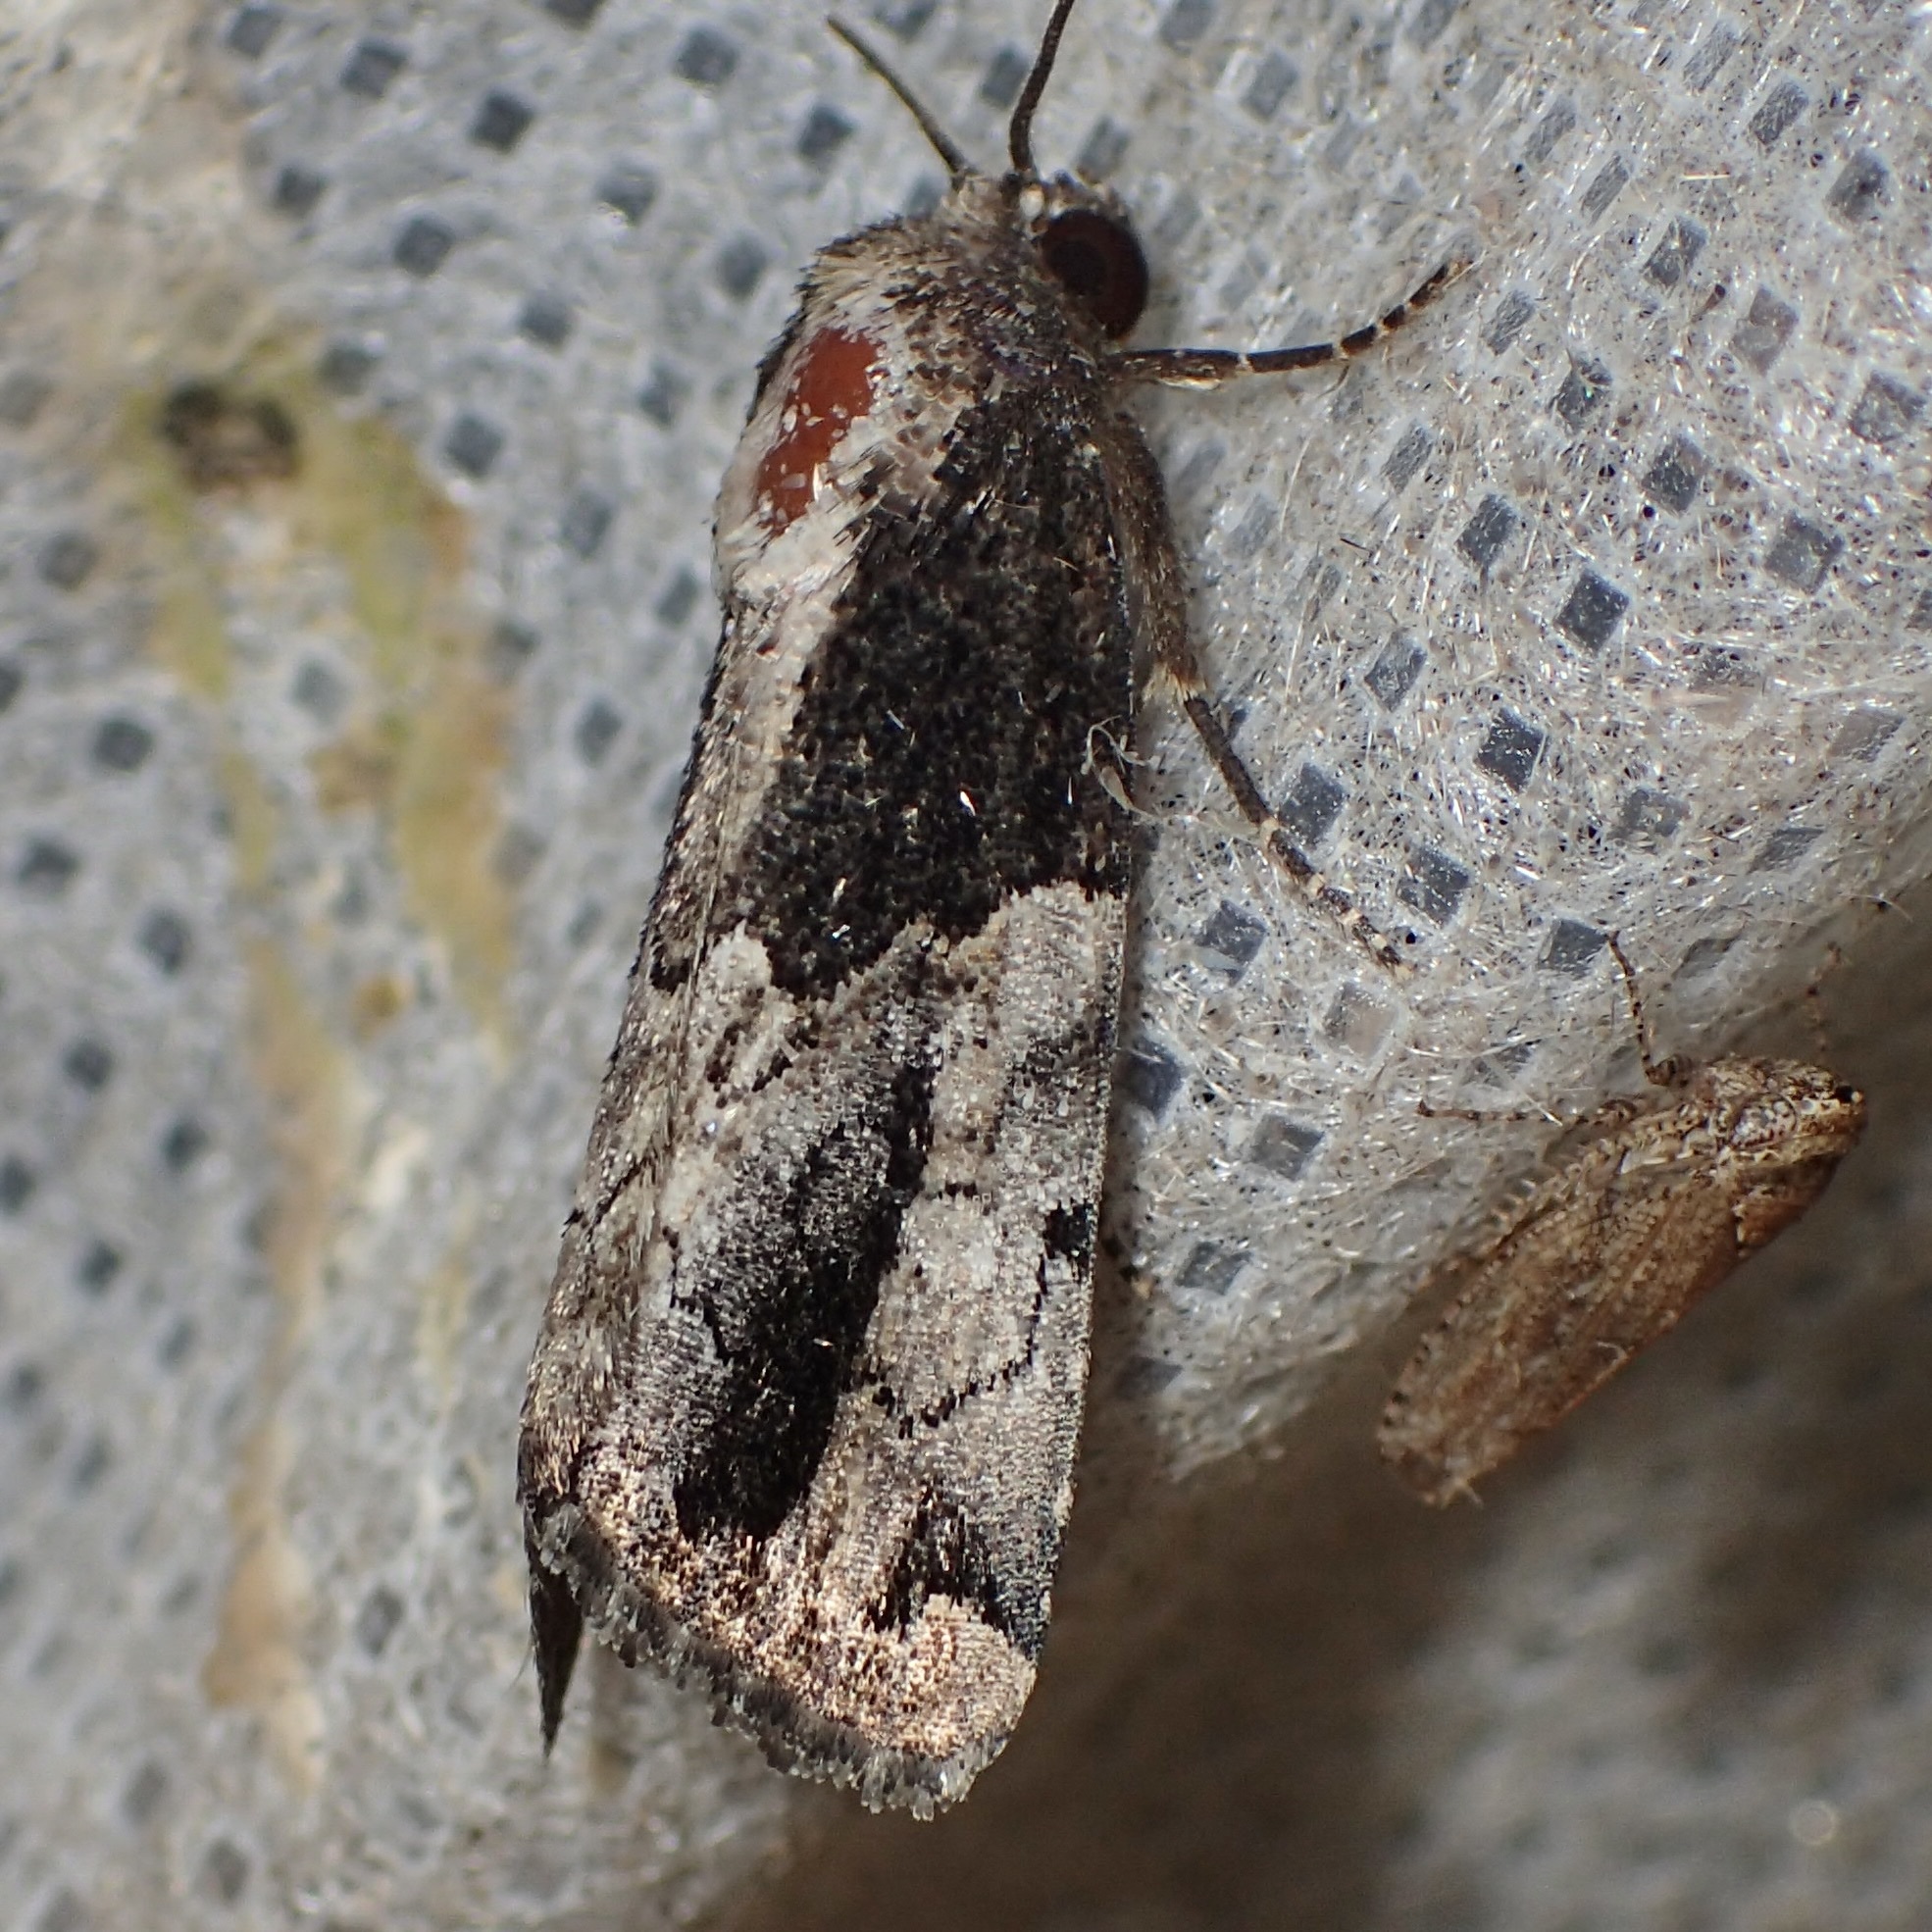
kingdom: Animalia
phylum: Arthropoda
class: Insecta
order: Lepidoptera
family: Noctuidae
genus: Bryolymnia
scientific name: Bryolymnia anthracitaria
